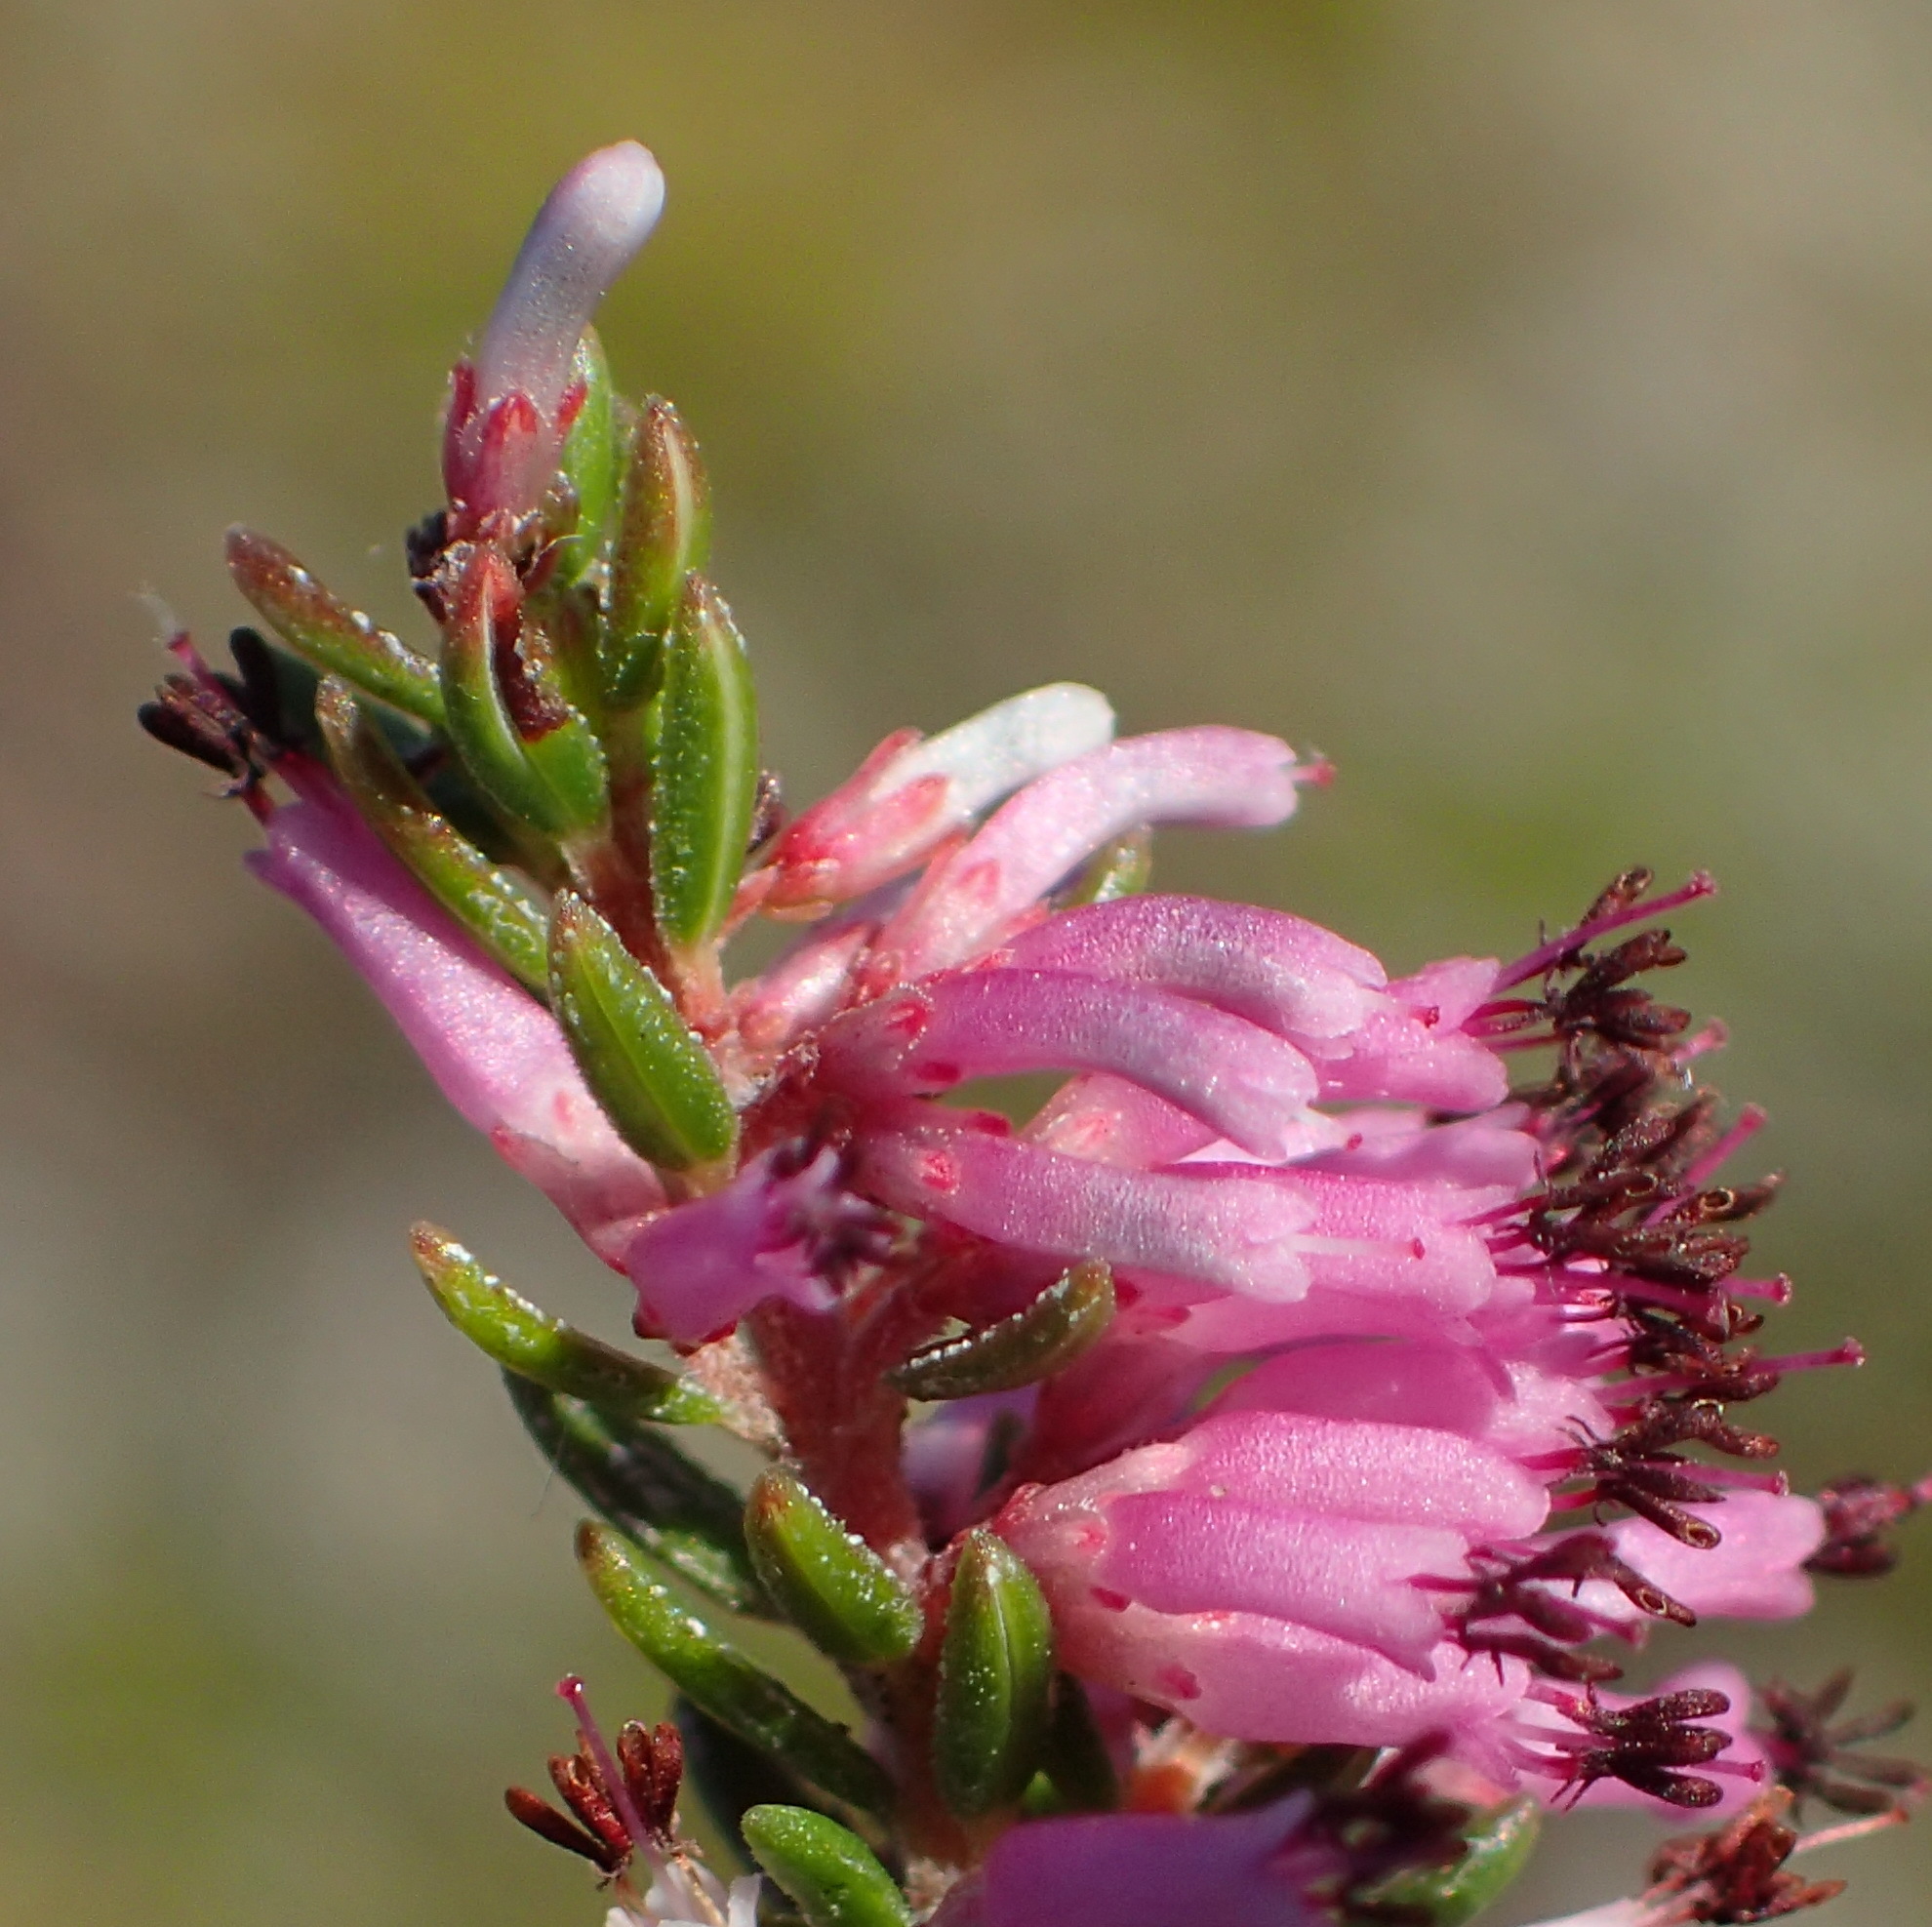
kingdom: Plantae
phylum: Tracheophyta
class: Magnoliopsida
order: Ericales
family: Ericaceae
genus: Erica
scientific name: Erica uberiflora
